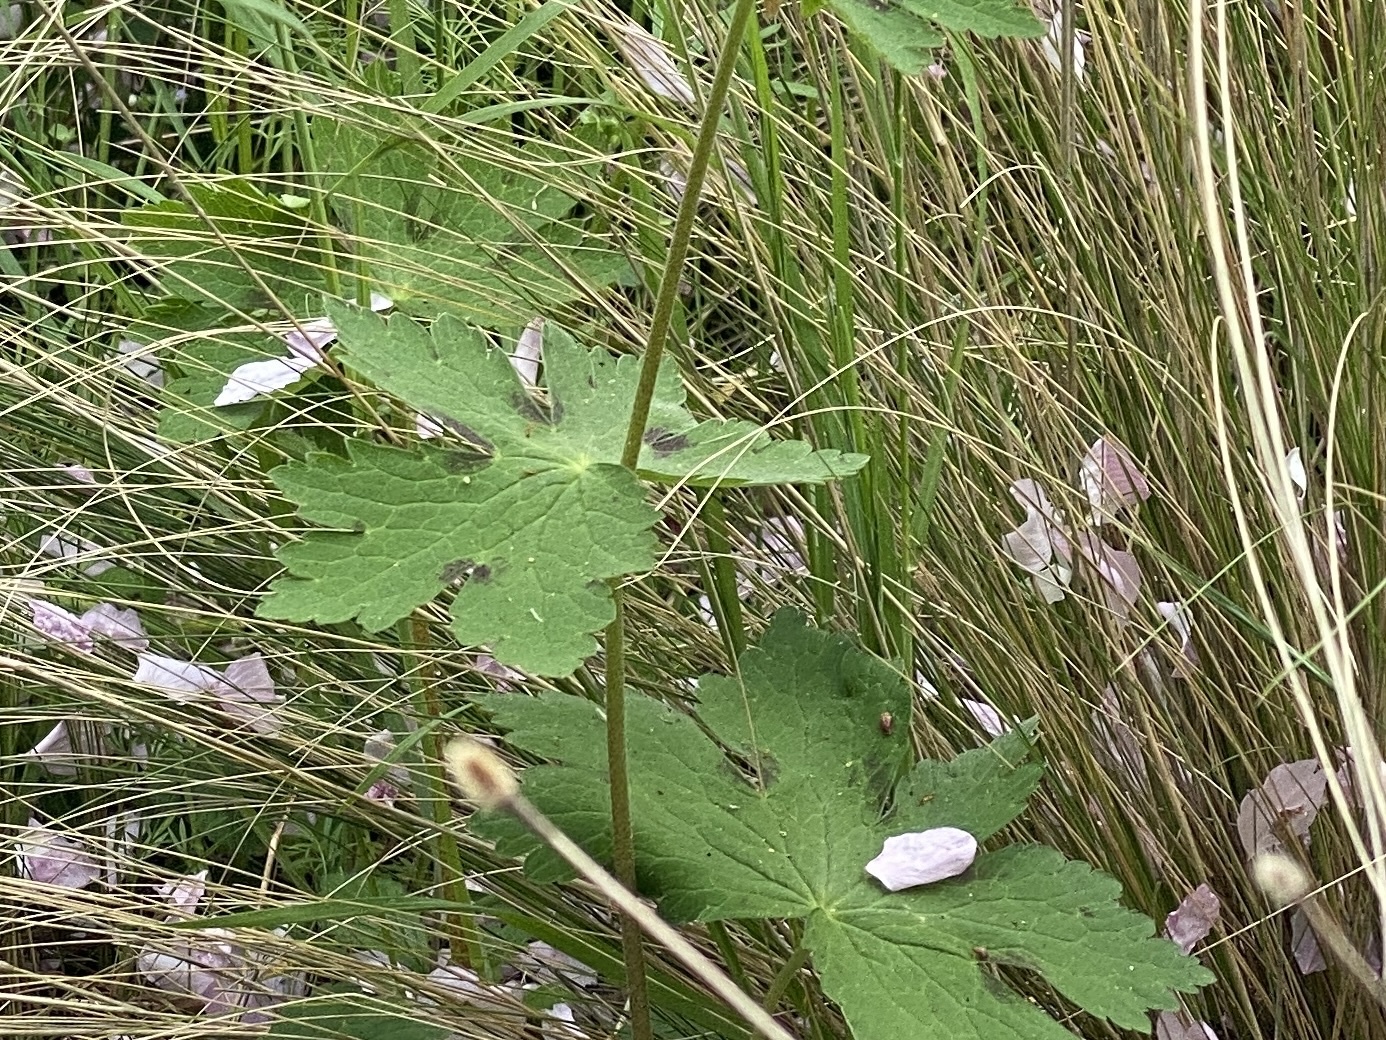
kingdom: Plantae
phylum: Tracheophyta
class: Magnoliopsida
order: Geraniales
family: Geraniaceae
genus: Geranium
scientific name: Geranium phaeum
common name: Dusky crane's-bill
